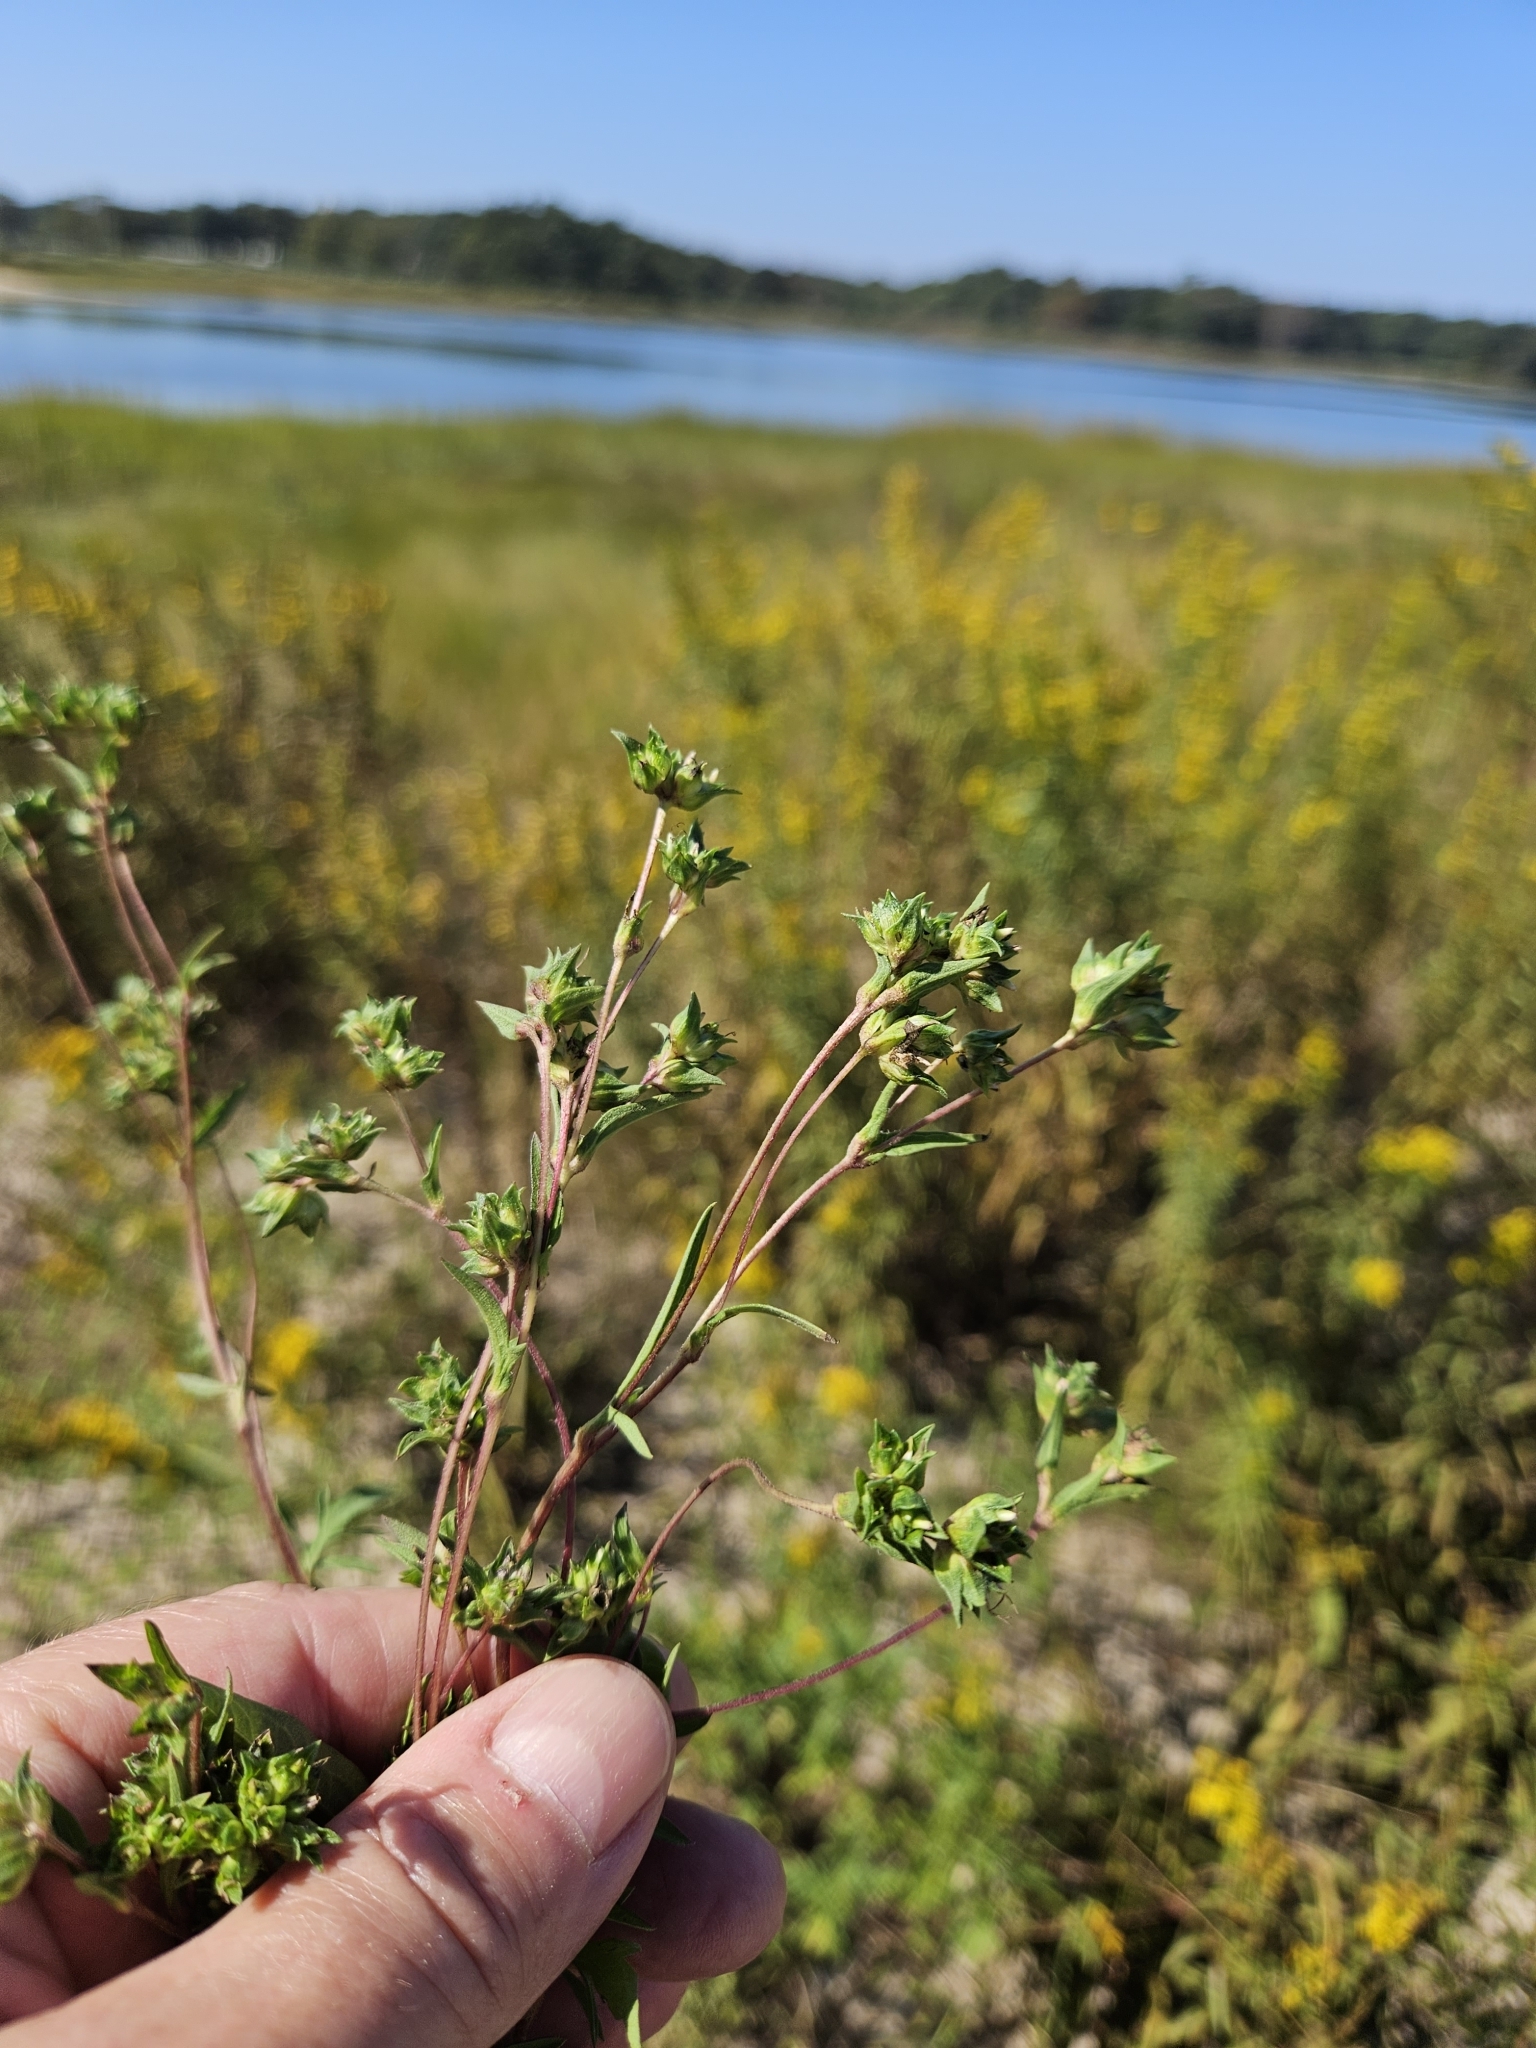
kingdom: Plantae
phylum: Tracheophyta
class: Magnoliopsida
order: Asterales
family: Asteraceae
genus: Ambrosia
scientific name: Ambrosia artemisiifolia
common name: Annual ragweed
